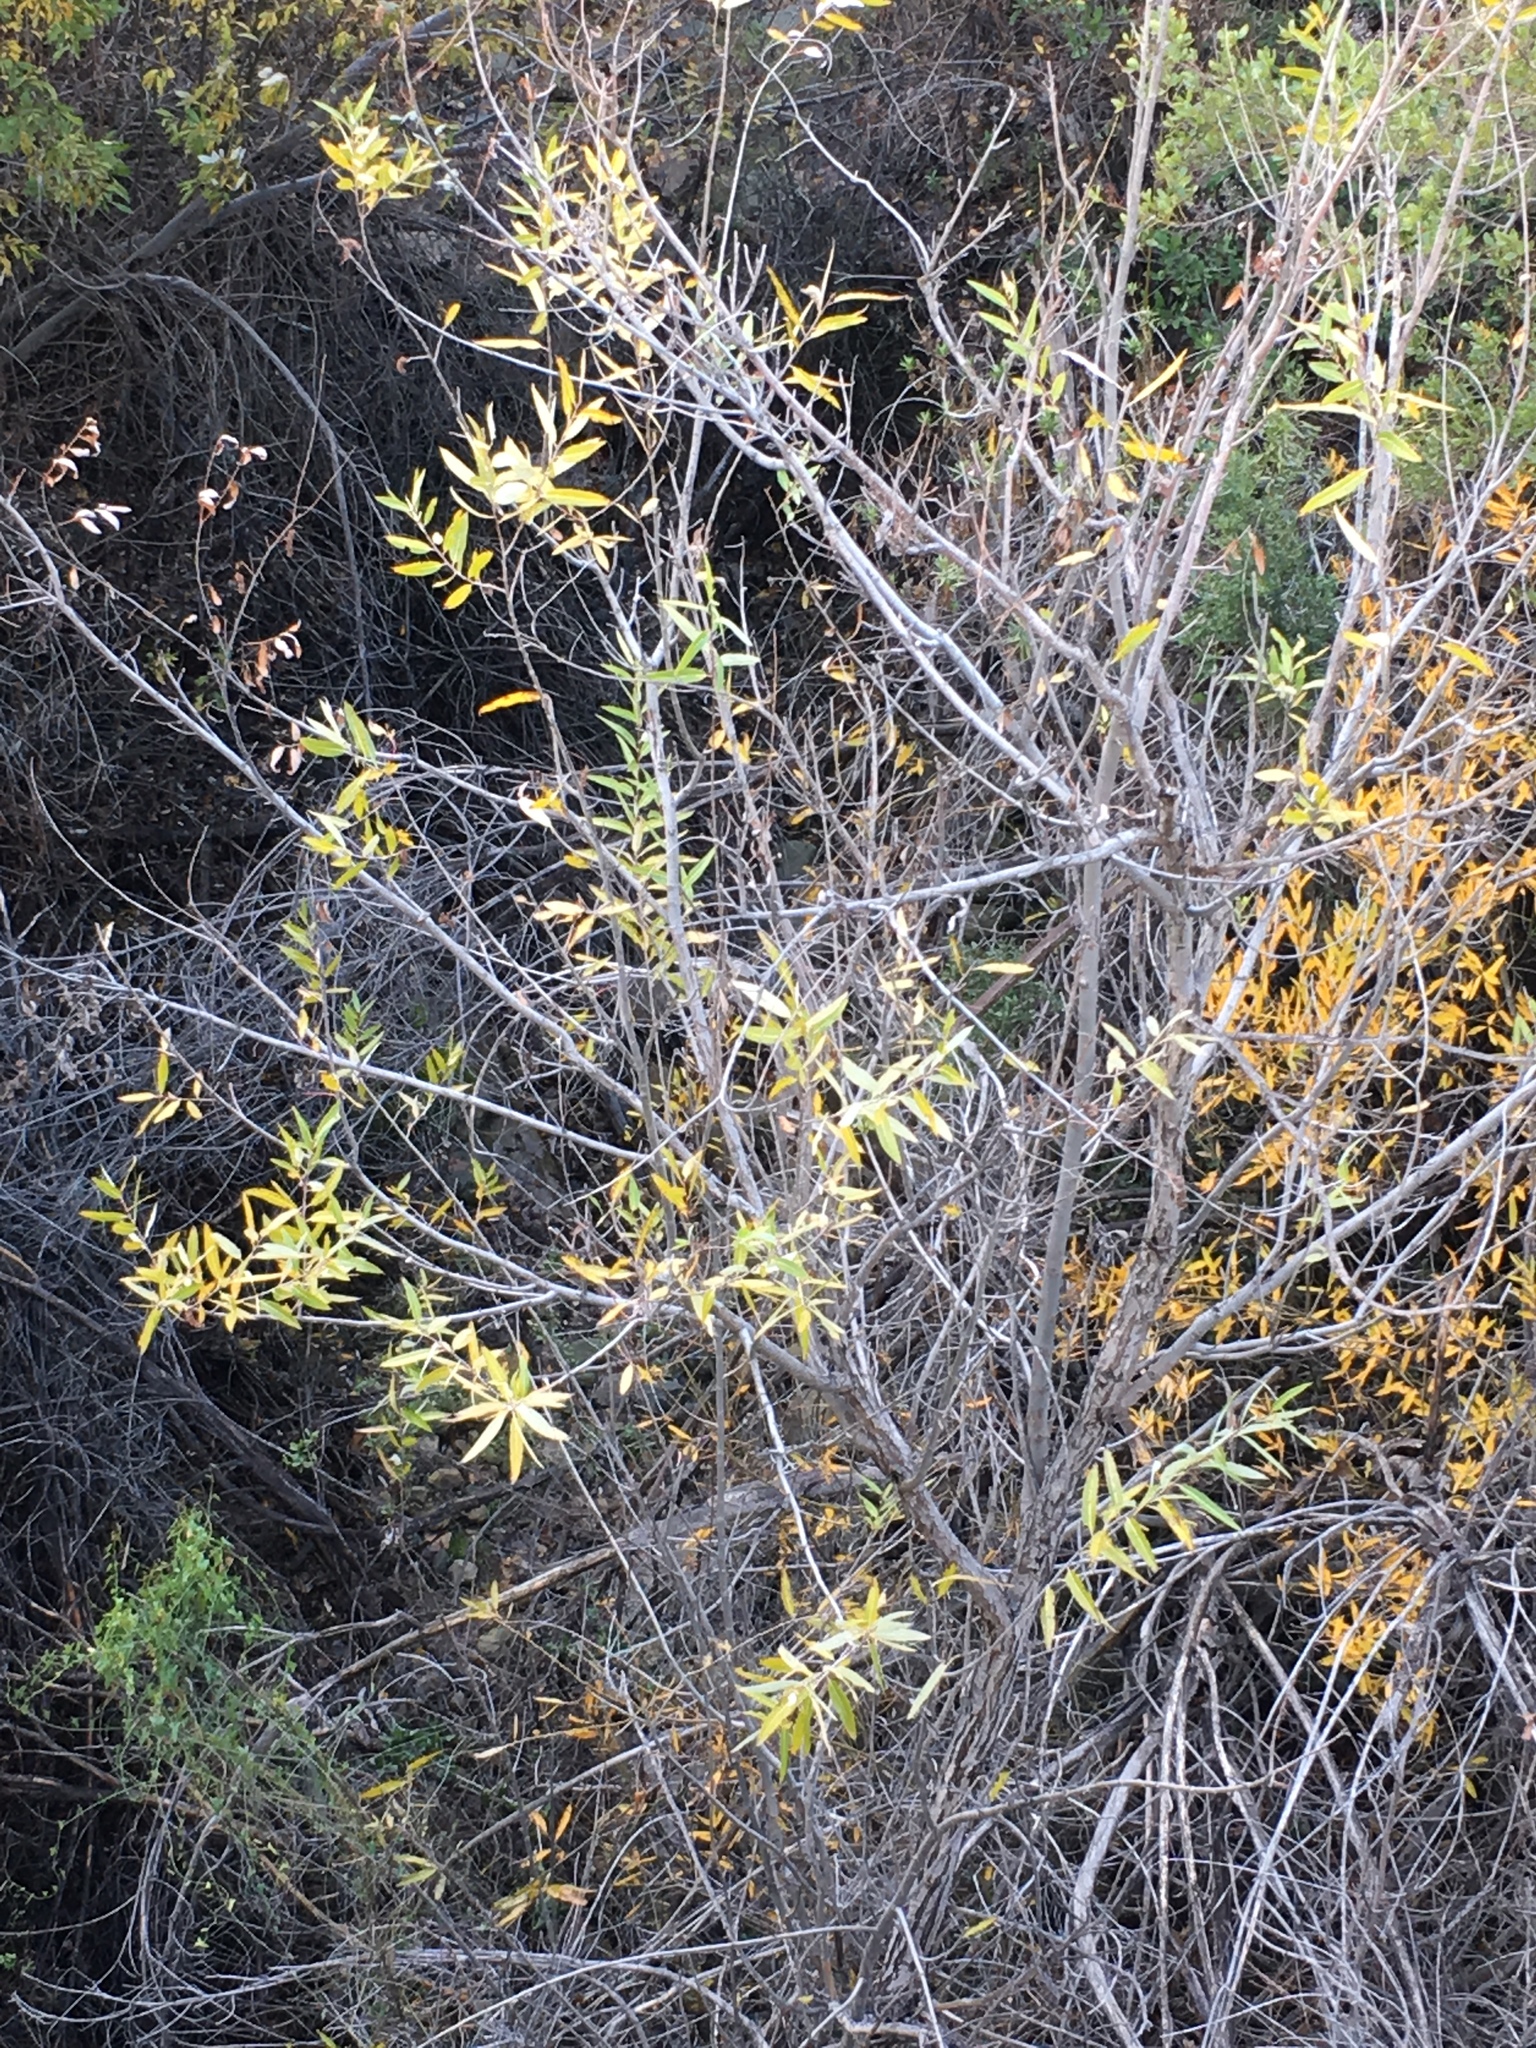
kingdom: Plantae
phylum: Tracheophyta
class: Magnoliopsida
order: Malpighiales
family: Salicaceae
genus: Salix
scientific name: Salix laevigata
